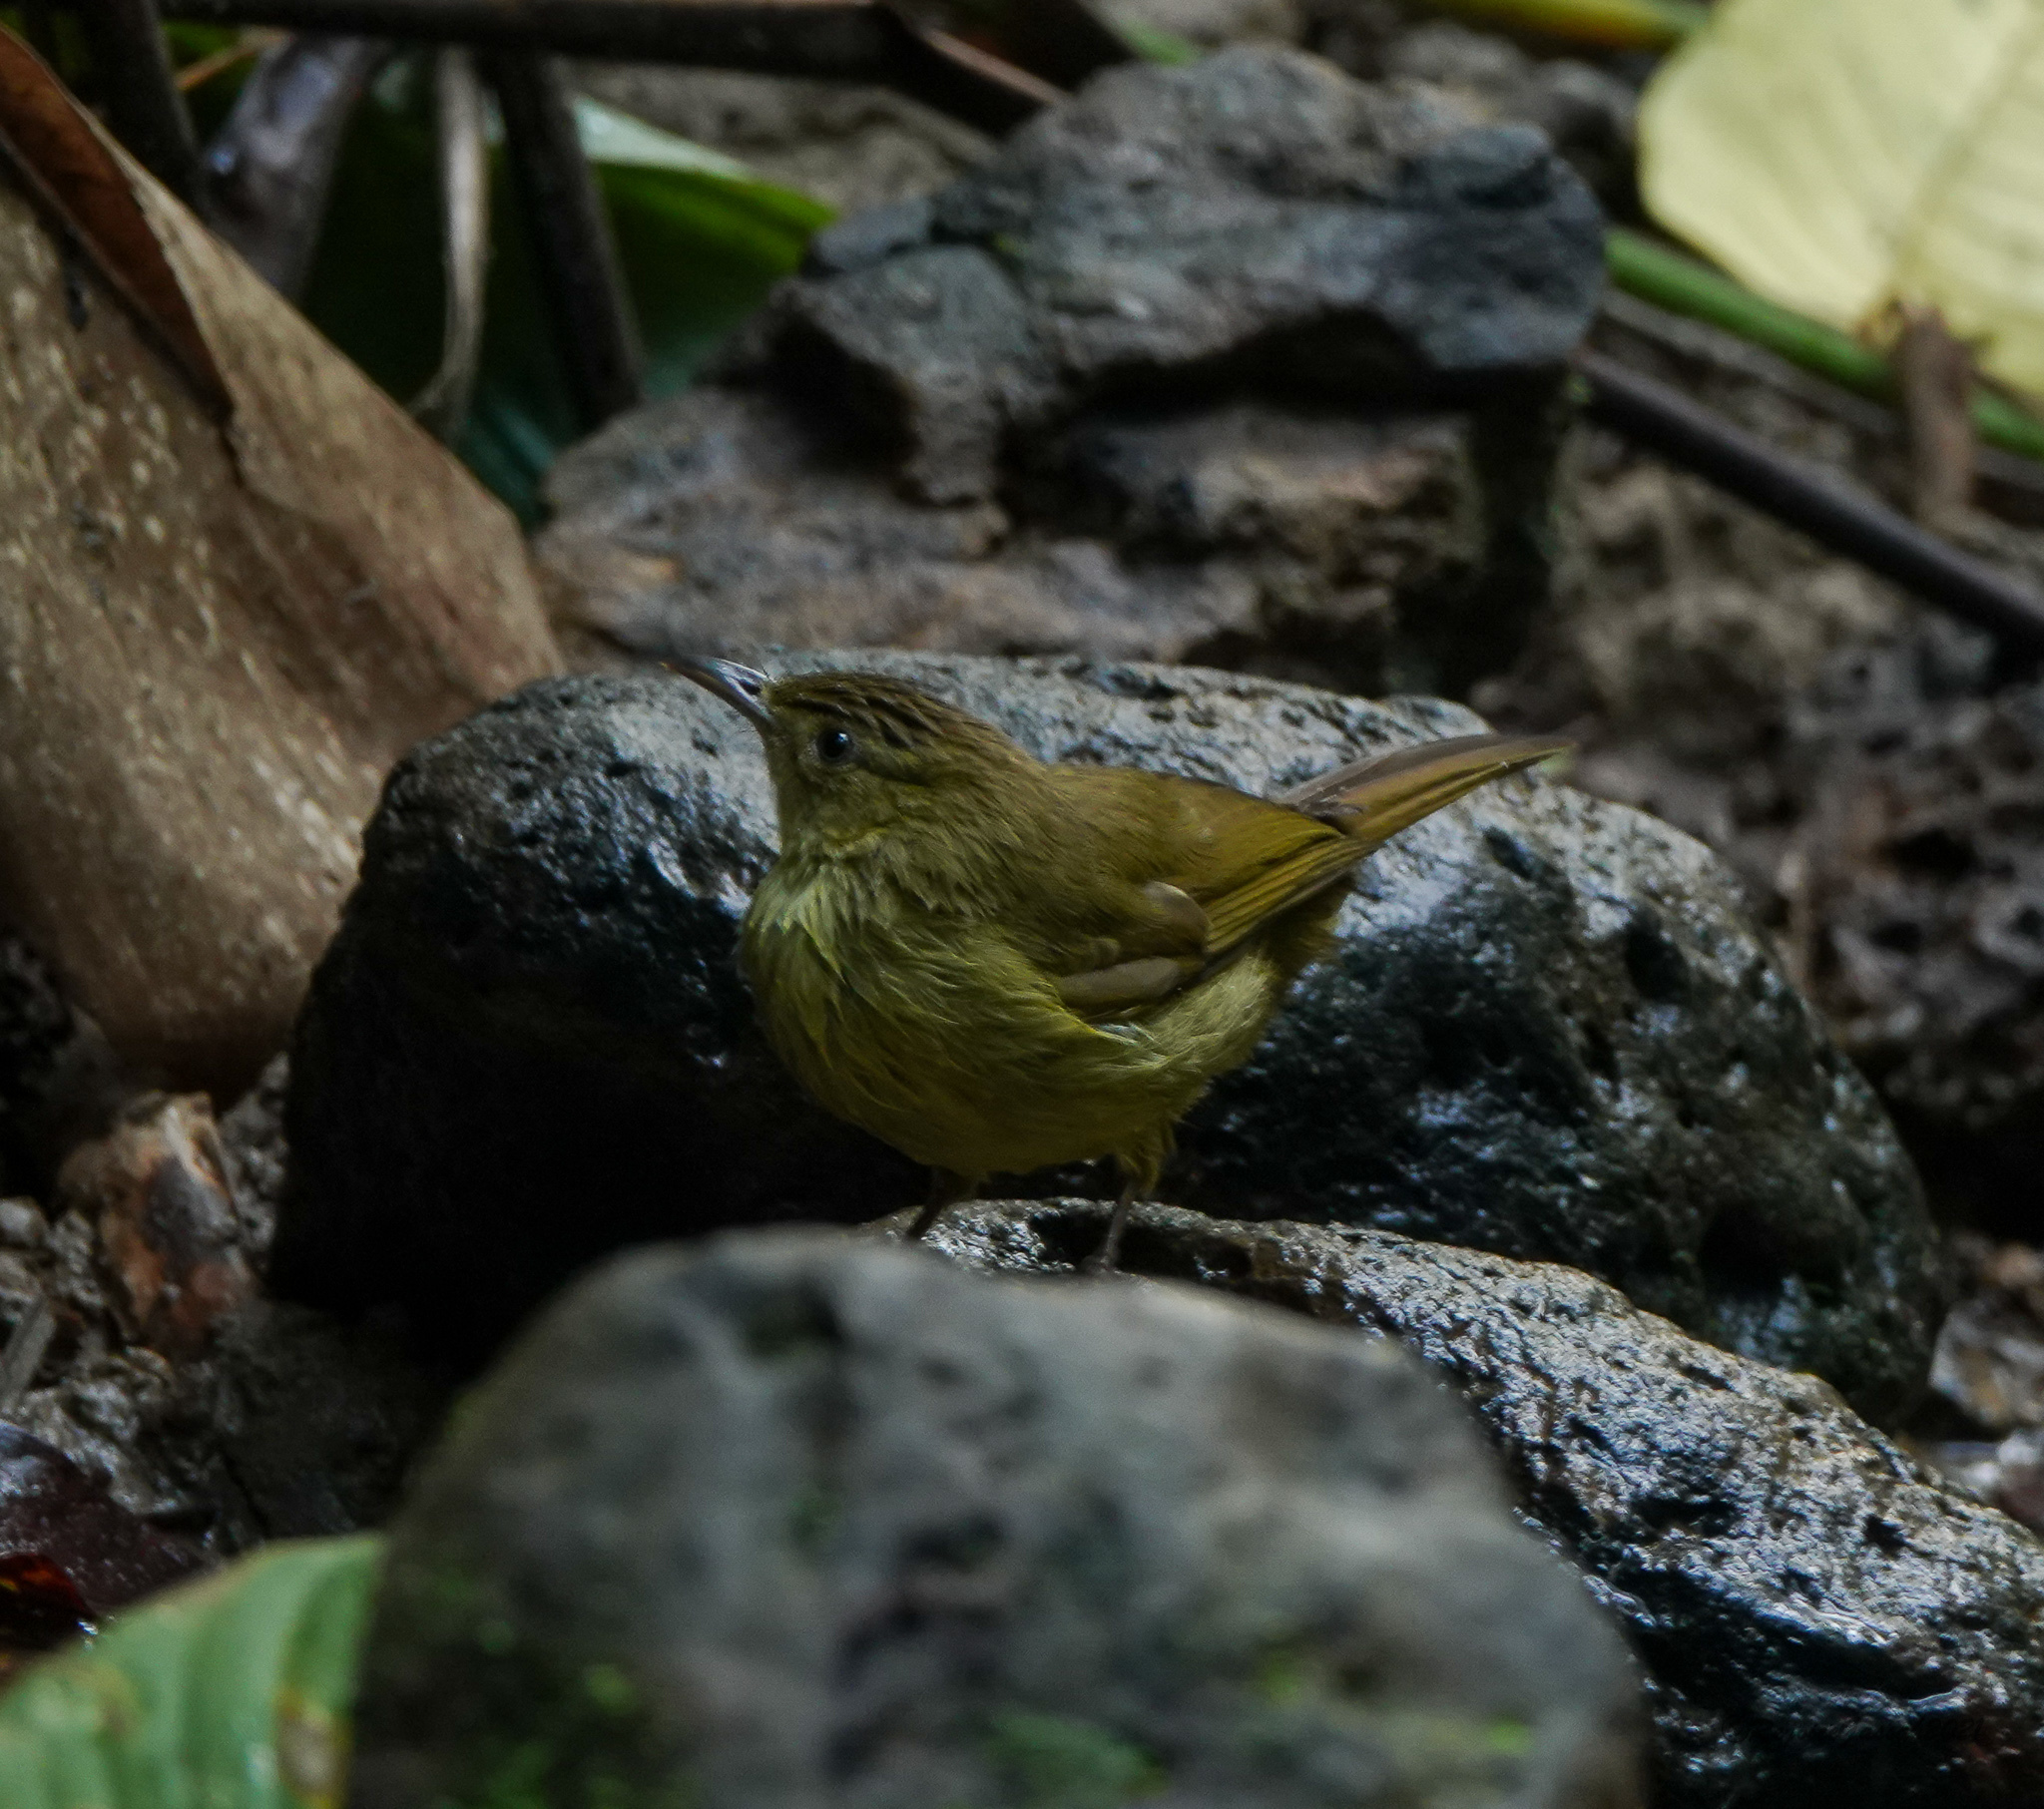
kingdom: Animalia
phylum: Chordata
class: Aves
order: Passeriformes
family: Pycnonotidae
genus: Iole
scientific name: Iole virescens
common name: Olive bulbul
